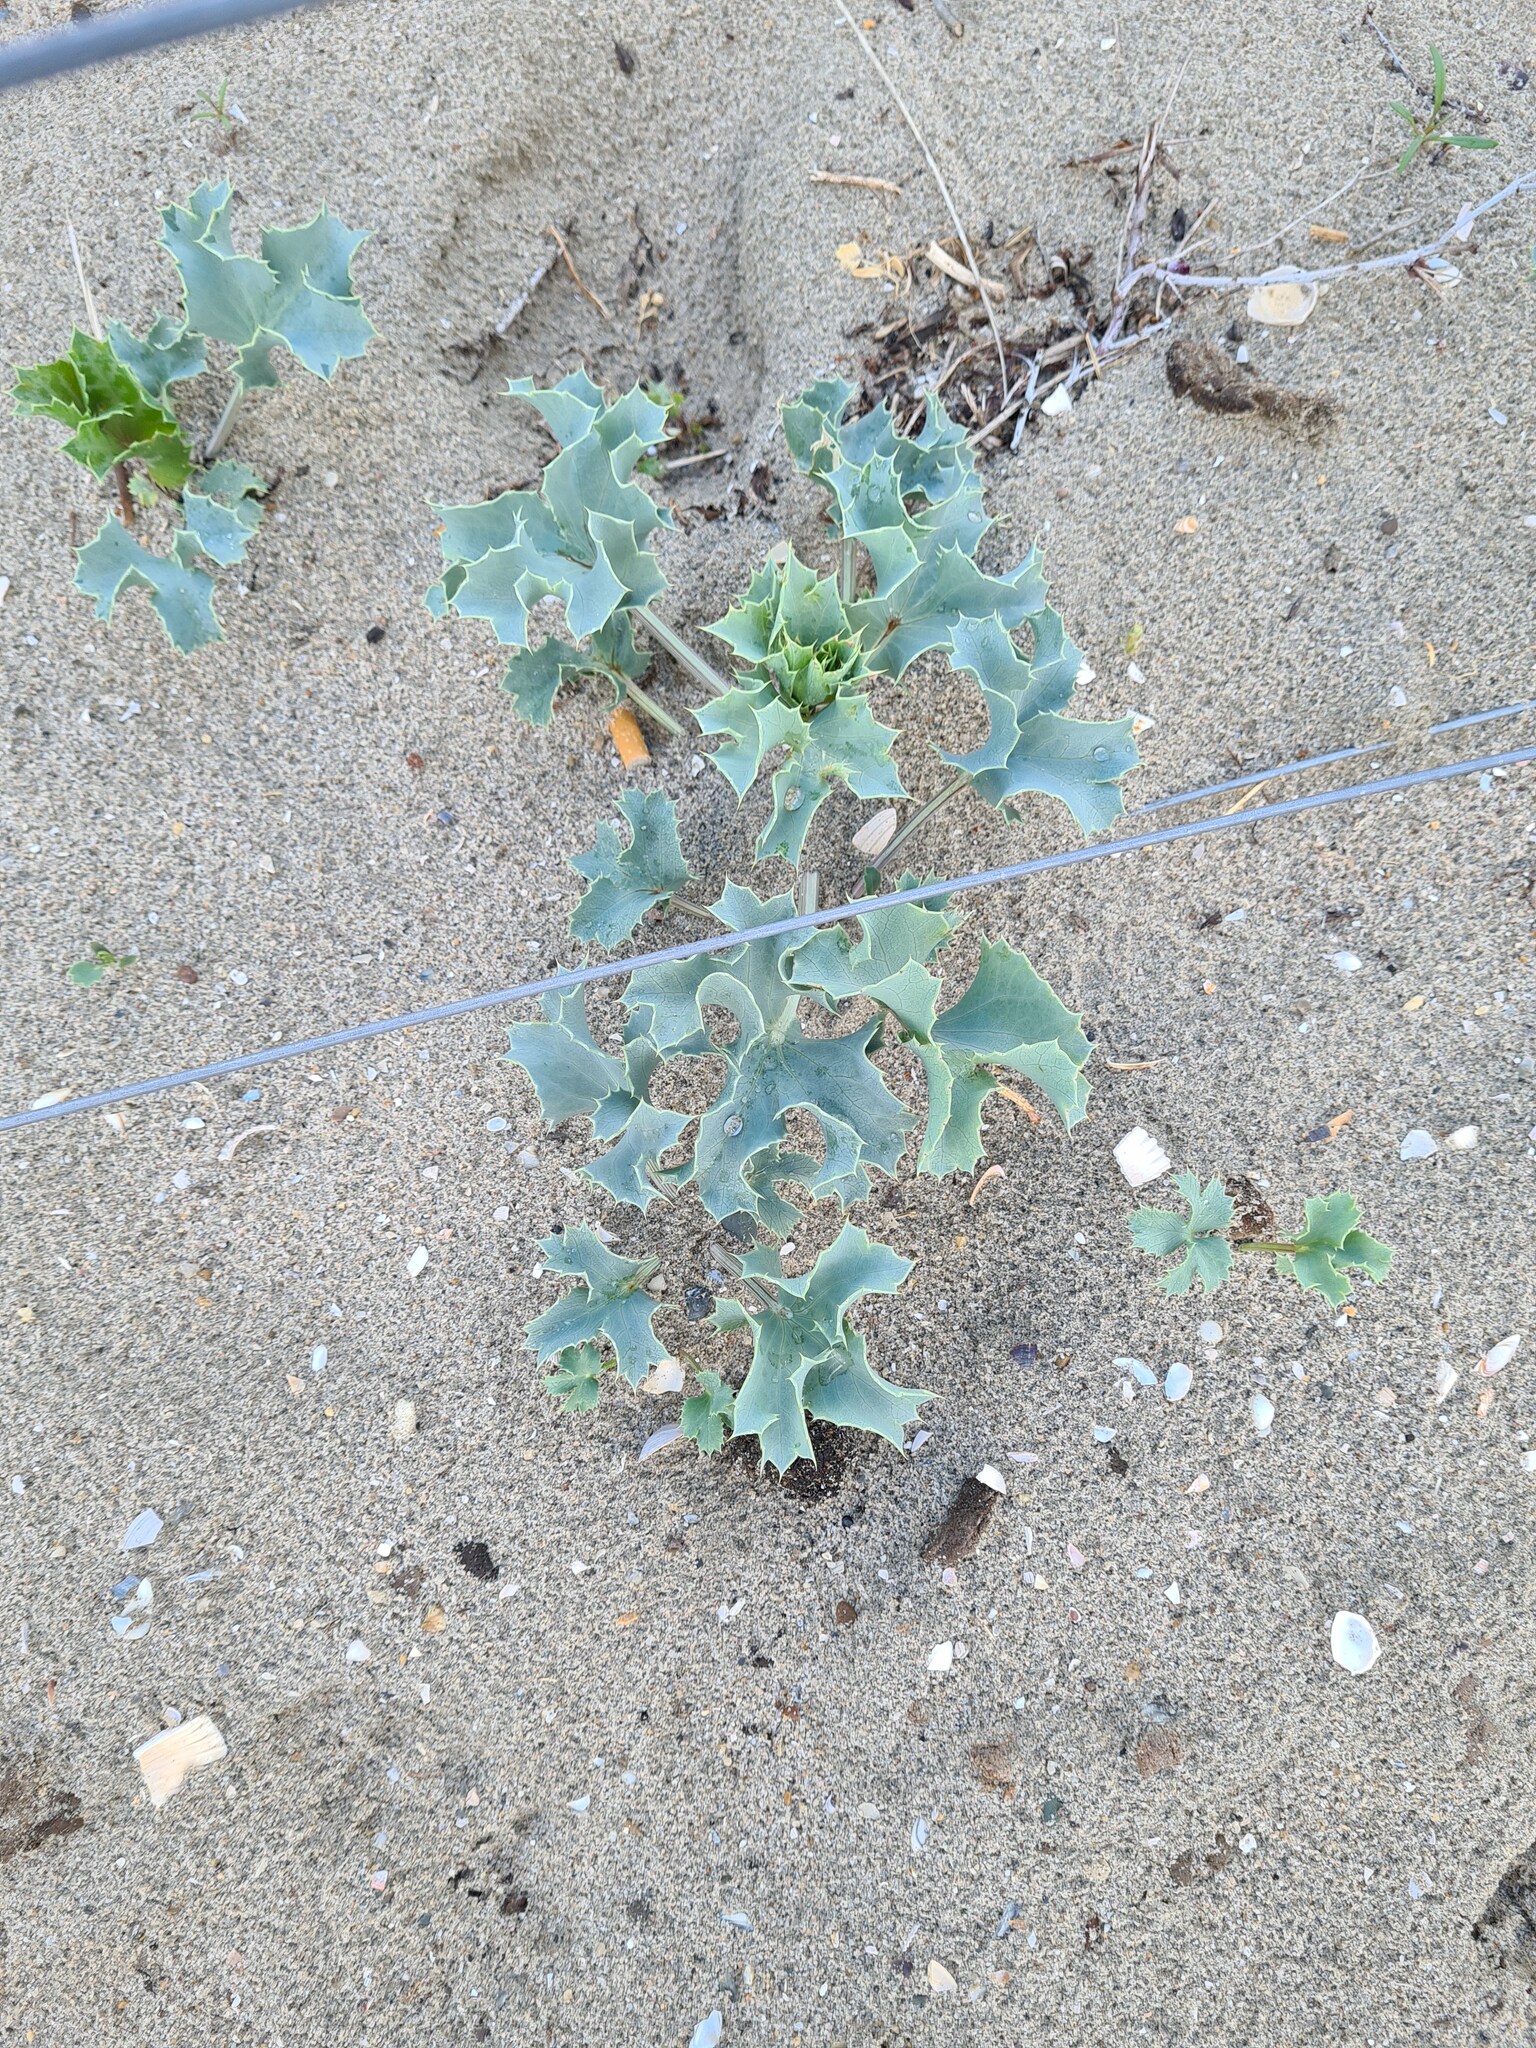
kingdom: Plantae
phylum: Tracheophyta
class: Magnoliopsida
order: Apiales
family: Apiaceae
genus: Eryngium
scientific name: Eryngium maritimum
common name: Sea-holly
